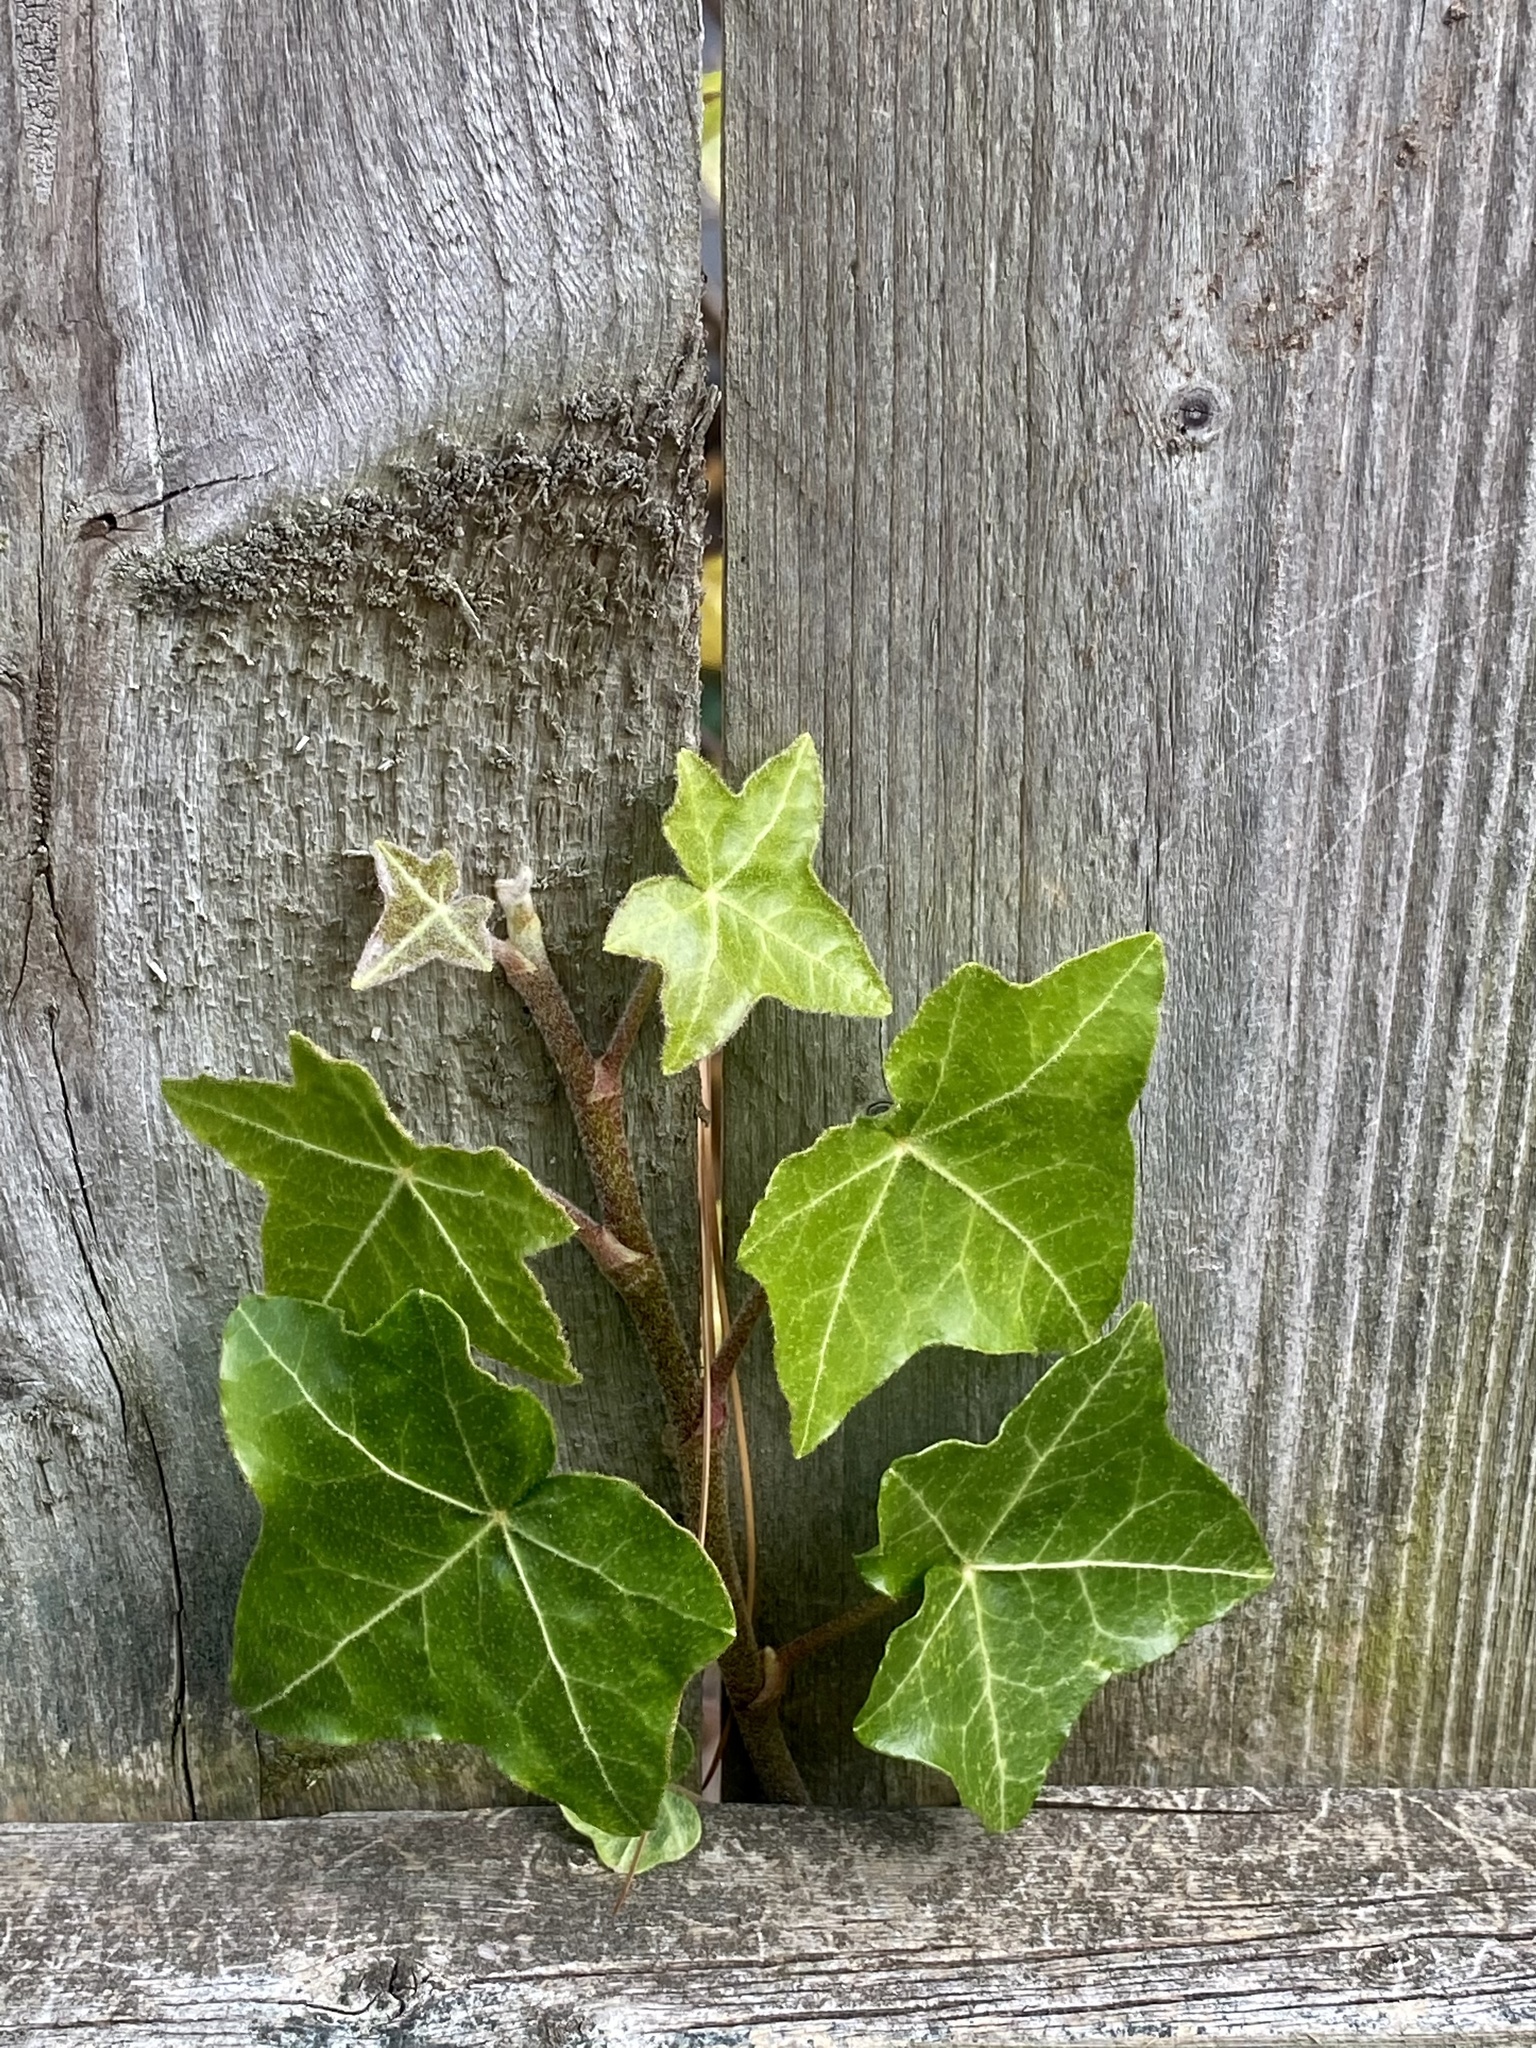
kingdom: Plantae
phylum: Tracheophyta
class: Magnoliopsida
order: Apiales
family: Araliaceae
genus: Hedera
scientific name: Hedera helix
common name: Ivy
